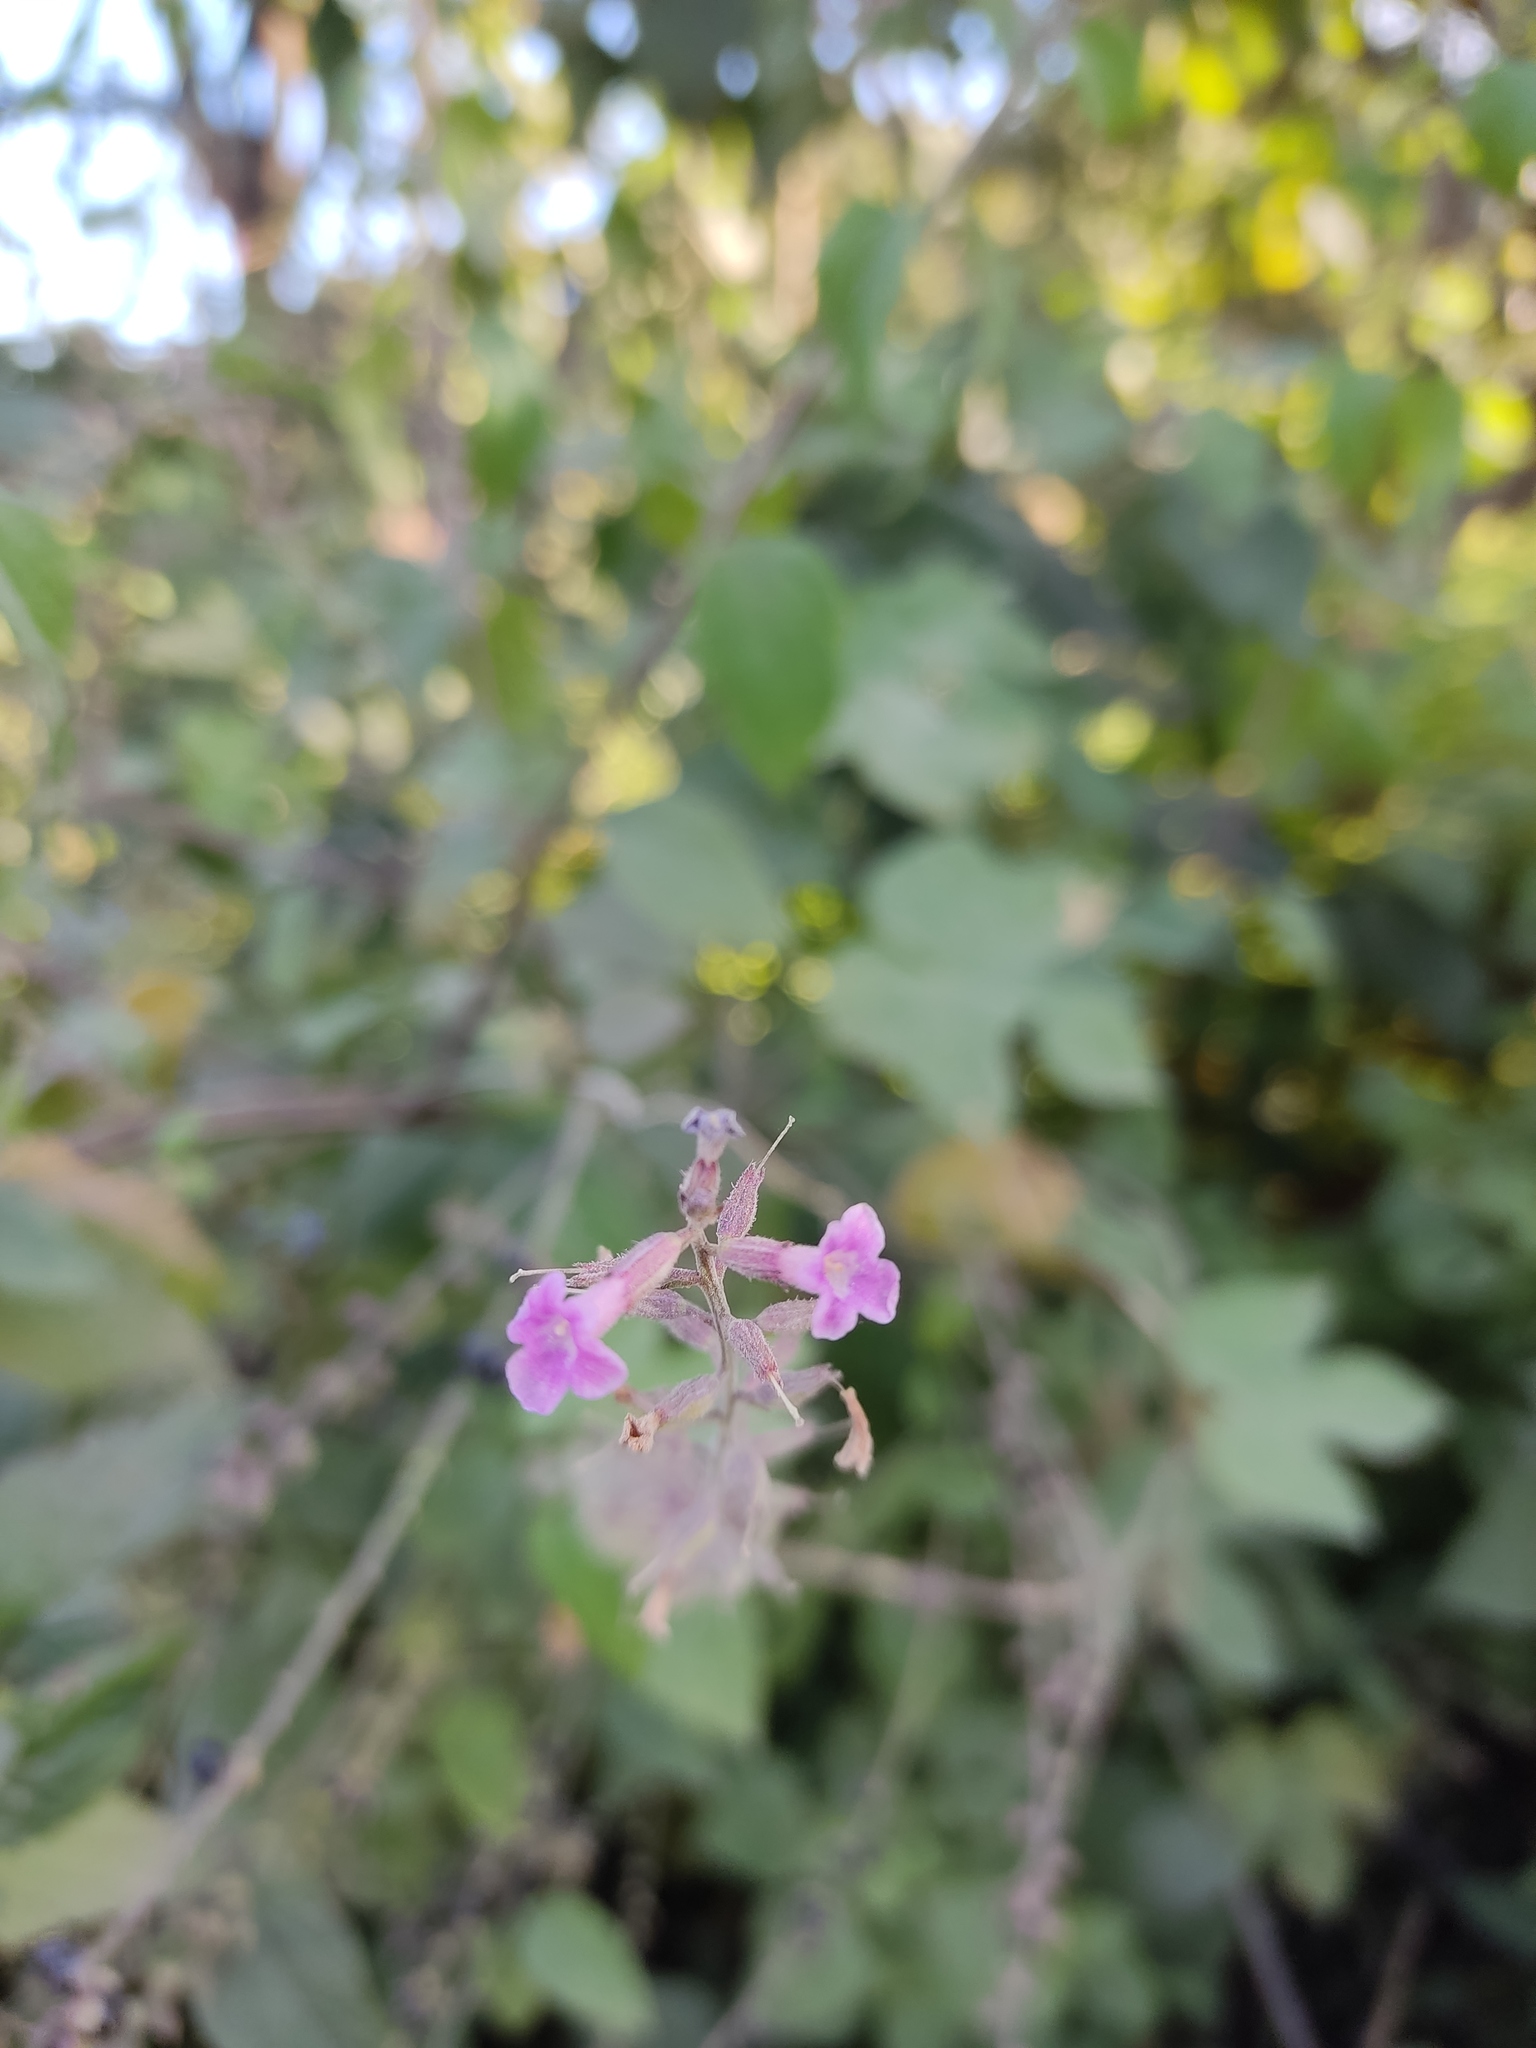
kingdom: Plantae
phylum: Tracheophyta
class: Magnoliopsida
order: Lamiales
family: Verbenaceae
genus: Priva
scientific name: Priva aspera
